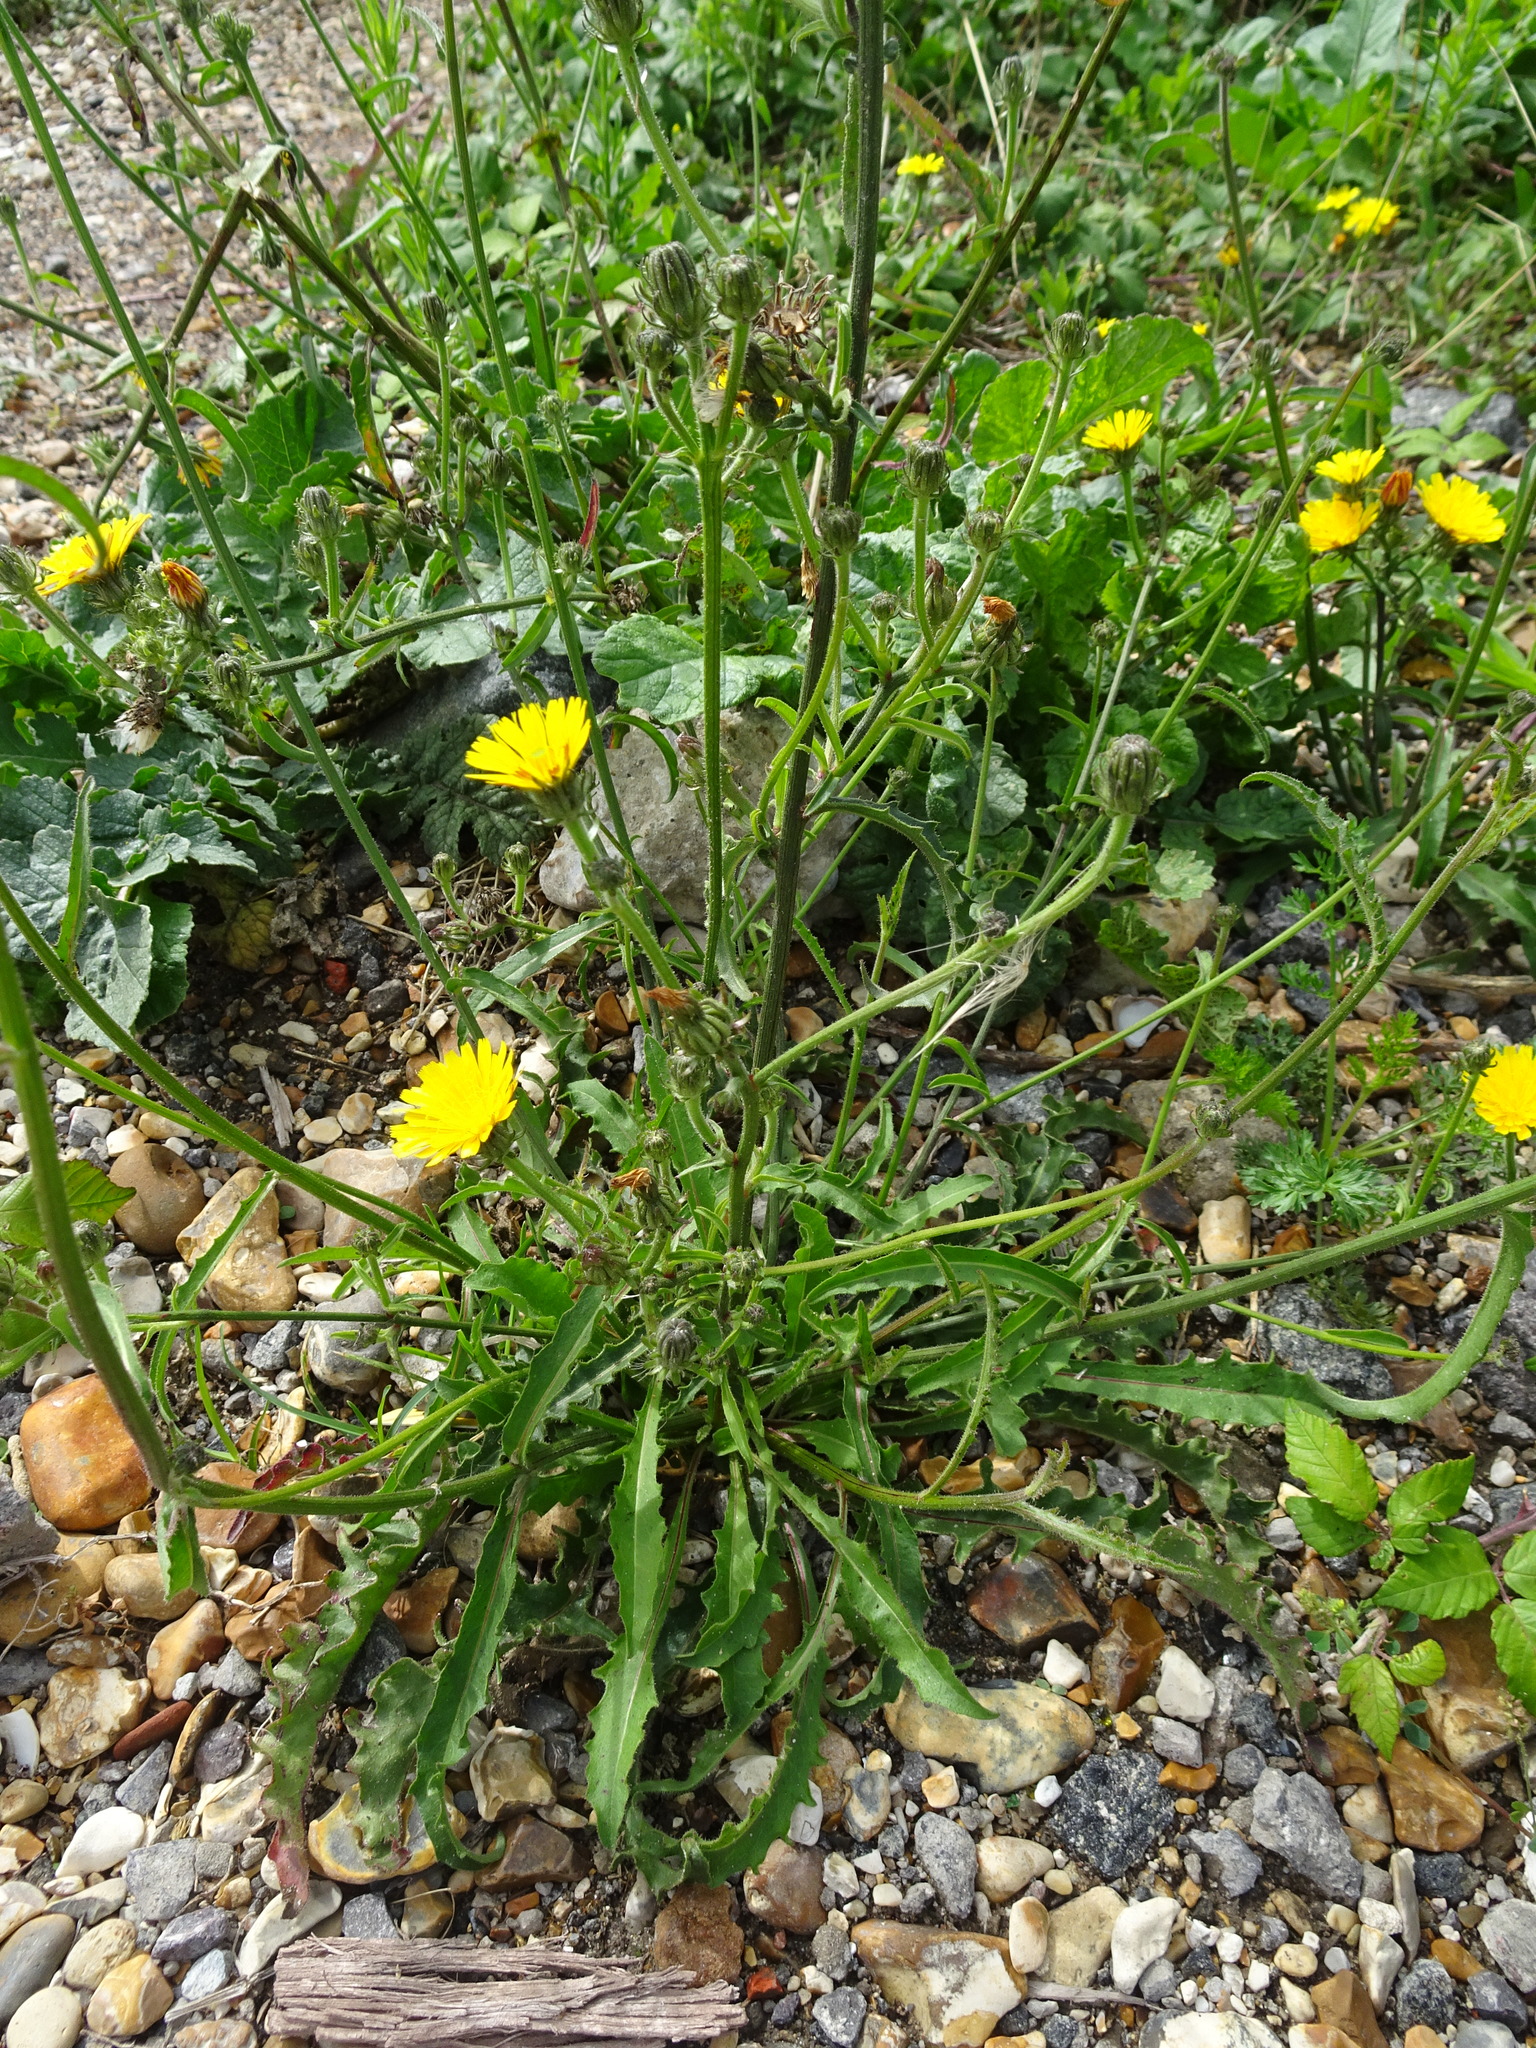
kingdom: Plantae
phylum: Tracheophyta
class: Magnoliopsida
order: Asterales
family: Asteraceae
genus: Picris
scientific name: Picris hieracioides
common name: Hawkweed oxtongue
